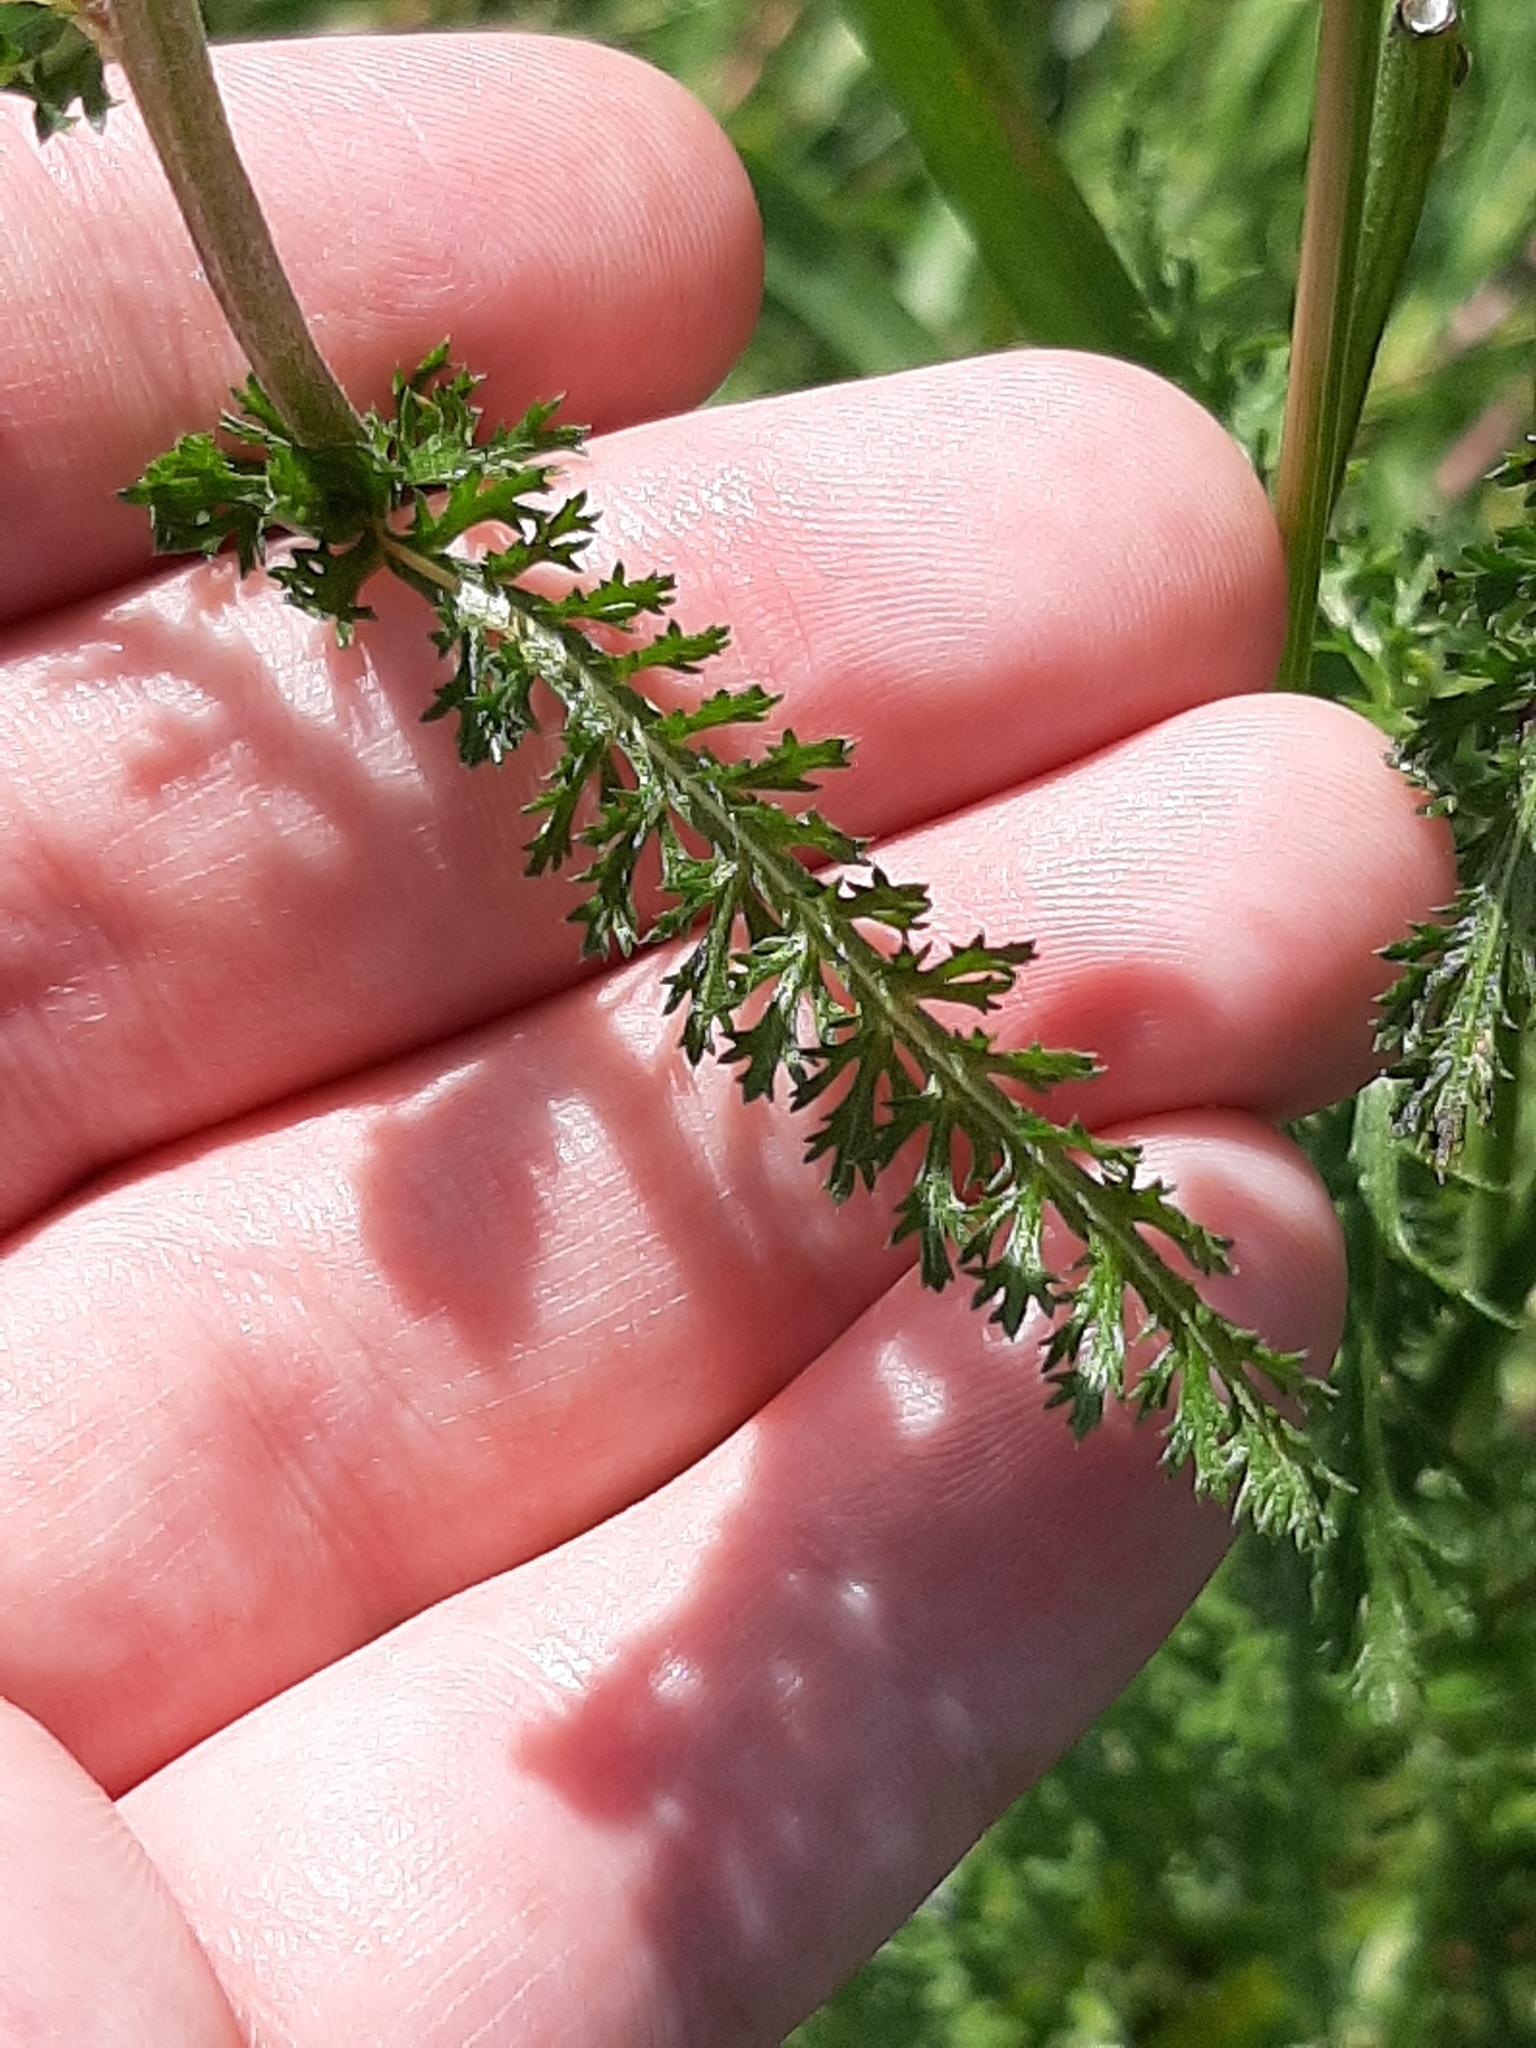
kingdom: Plantae
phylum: Tracheophyta
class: Magnoliopsida
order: Asterales
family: Asteraceae
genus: Achillea
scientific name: Achillea millefolium
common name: Yarrow
